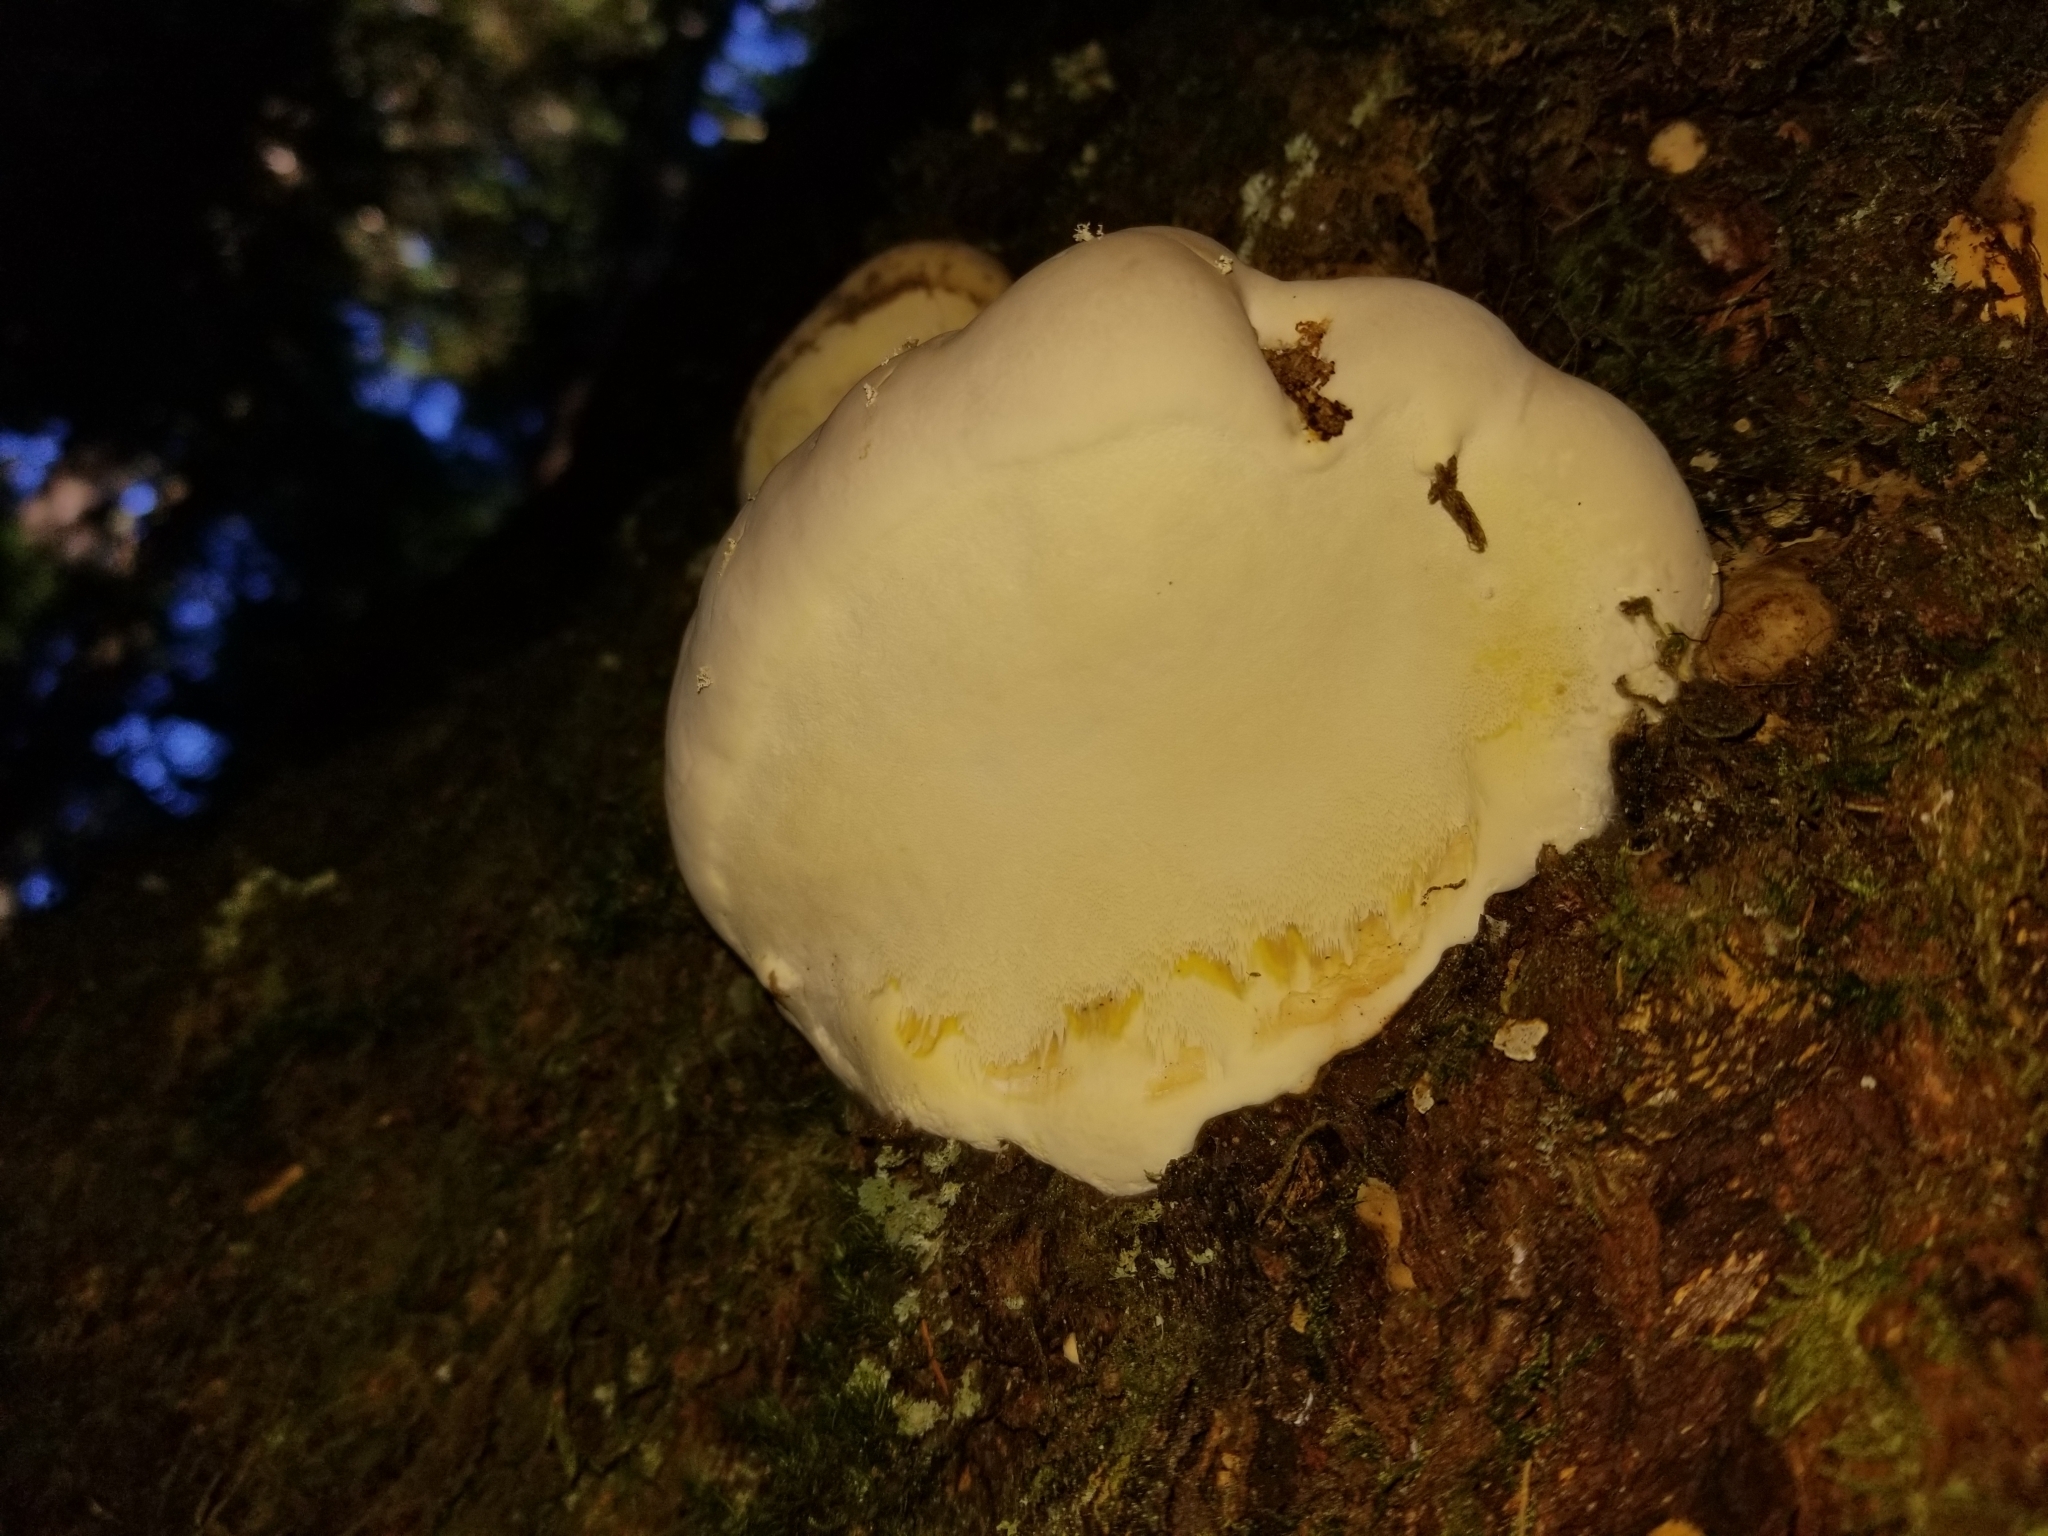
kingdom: Fungi
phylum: Basidiomycota
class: Agaricomycetes
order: Polyporales
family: Fomitopsidaceae
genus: Fomitopsis
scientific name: Fomitopsis ochracea
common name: American brown fomitopsis
